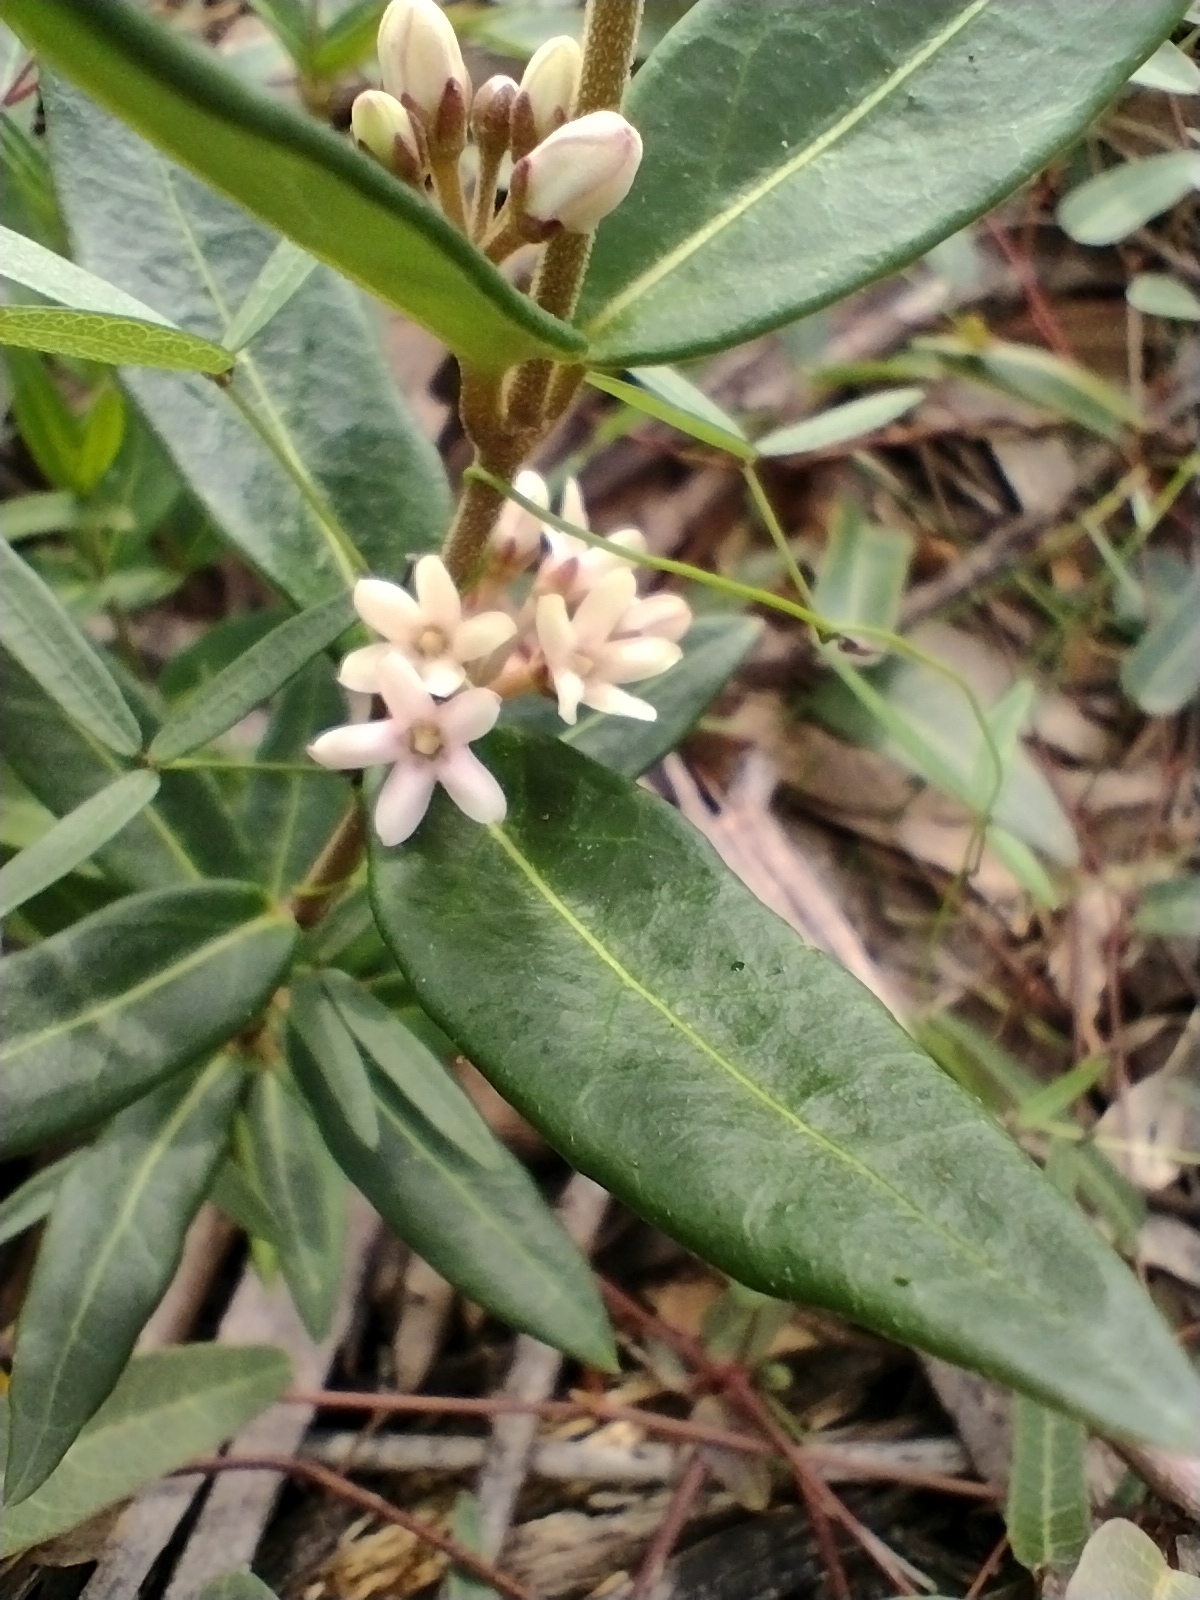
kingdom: Plantae
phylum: Tracheophyta
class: Magnoliopsida
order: Gentianales
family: Apocynaceae
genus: Leichhardtia
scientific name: Leichhardtia suaveolens
